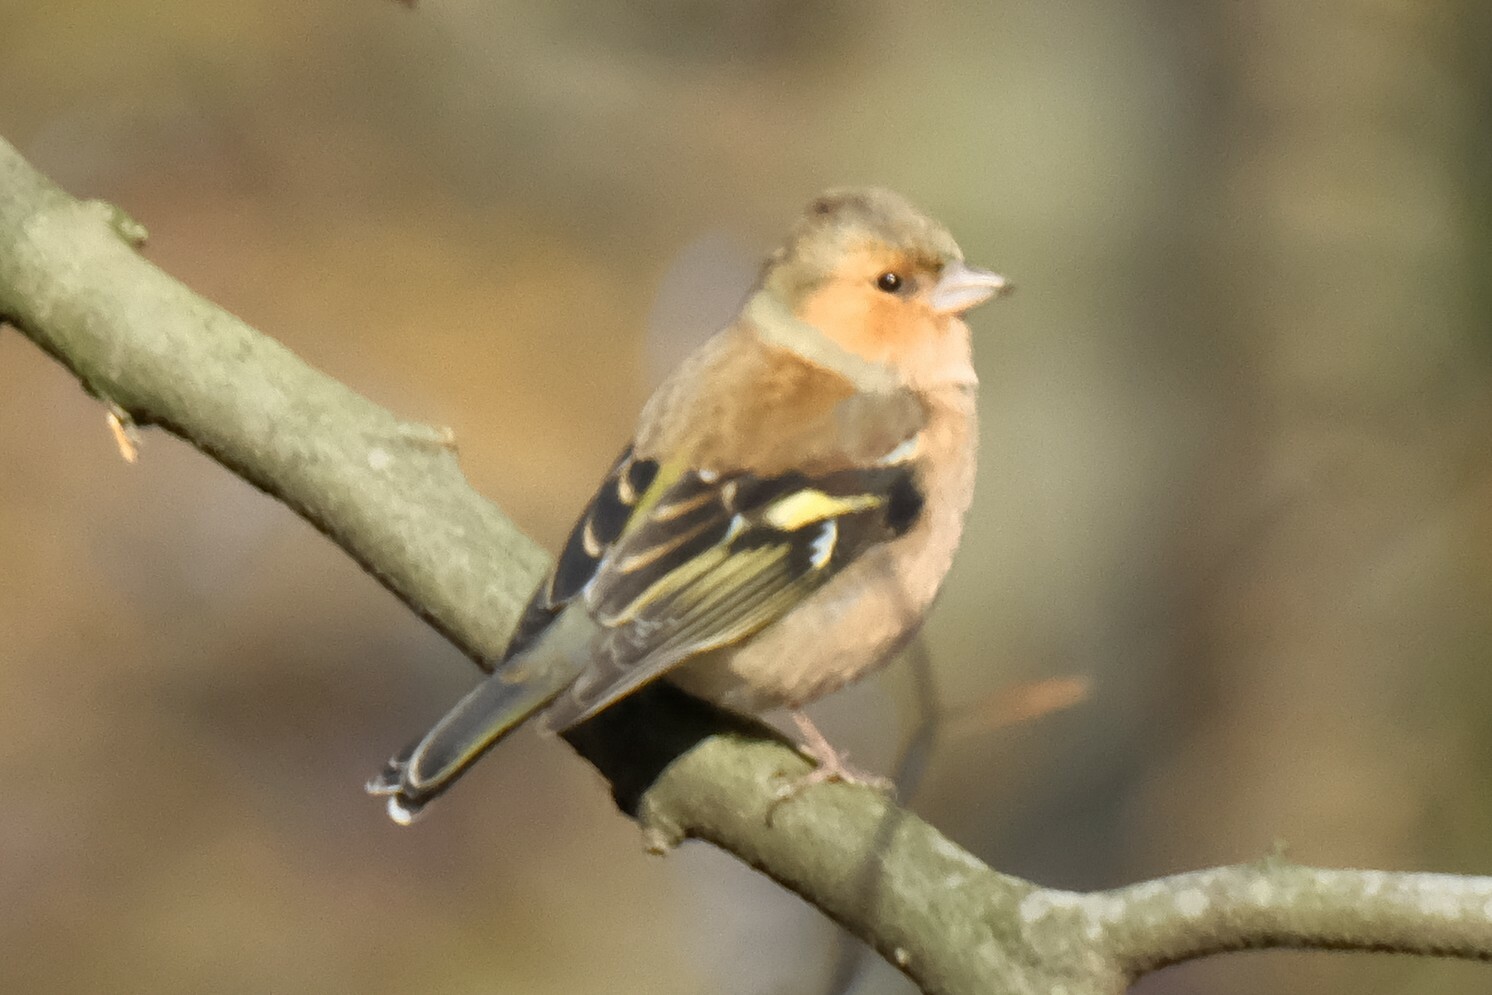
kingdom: Animalia
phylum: Chordata
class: Aves
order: Passeriformes
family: Fringillidae
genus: Fringilla
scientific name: Fringilla coelebs
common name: Common chaffinch
